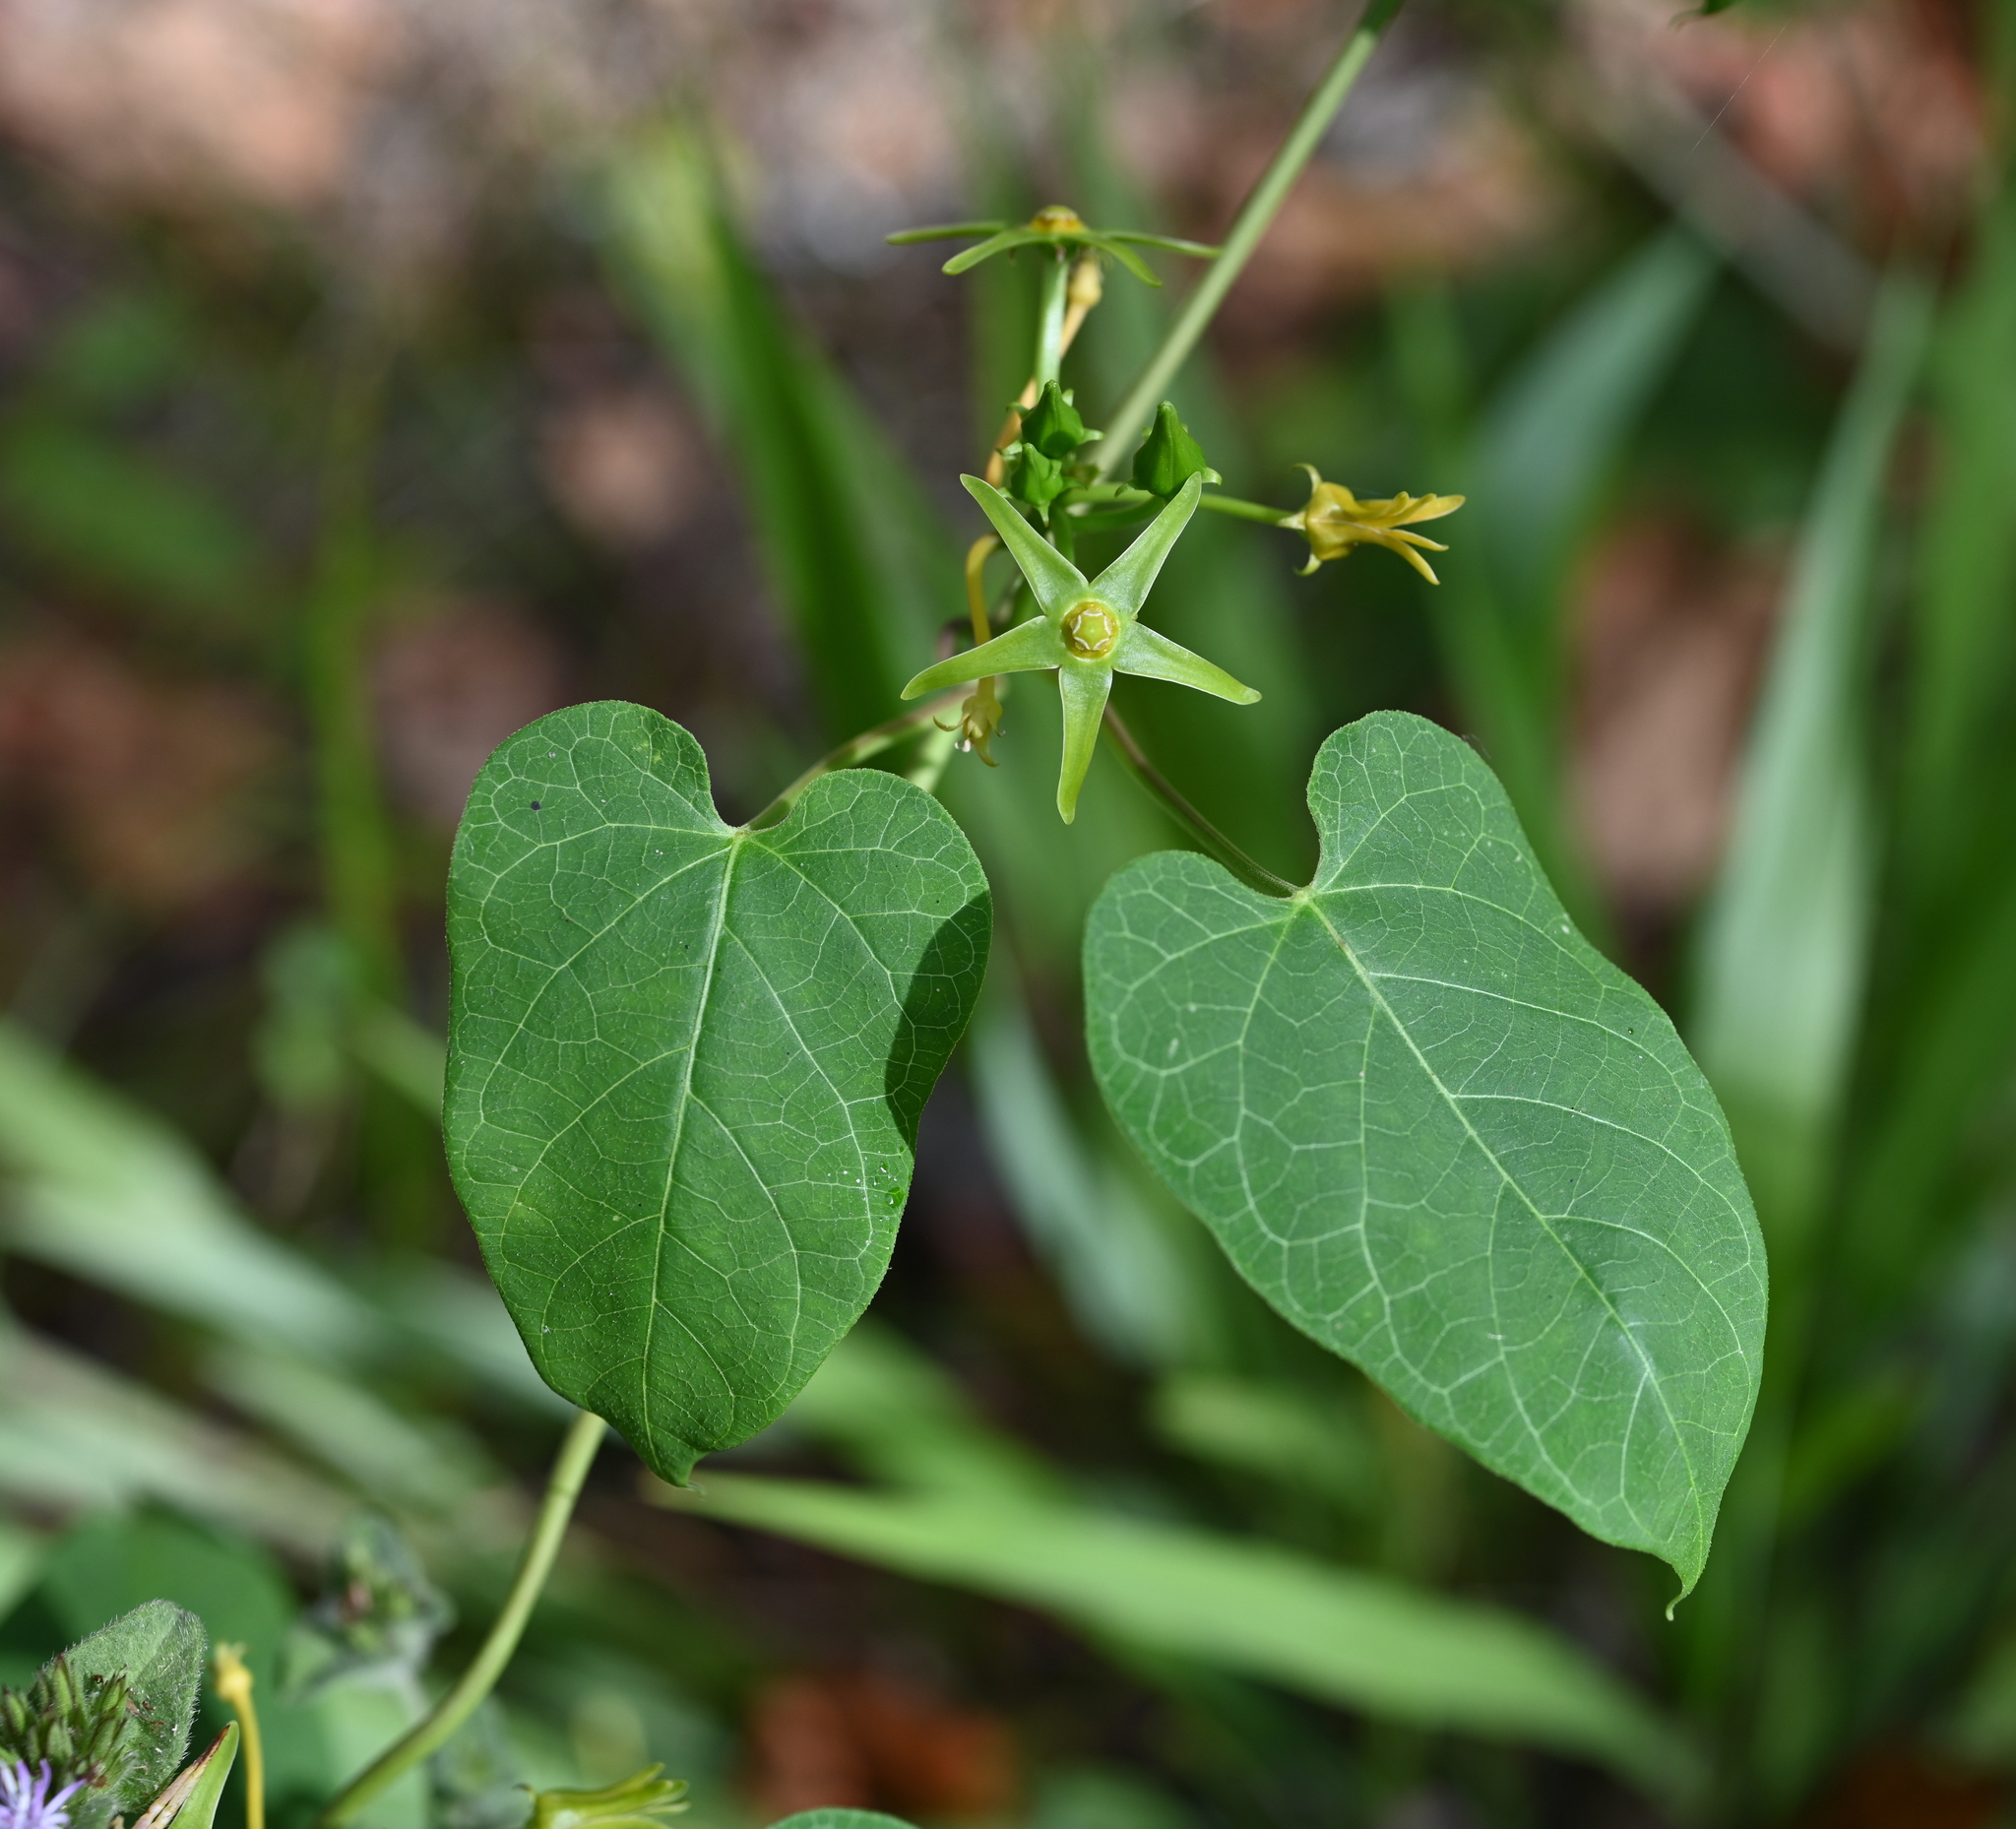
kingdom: Plantae
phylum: Tracheophyta
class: Magnoliopsida
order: Gentianales
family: Apocynaceae
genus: Gonolobus
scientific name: Gonolobus suberosus
